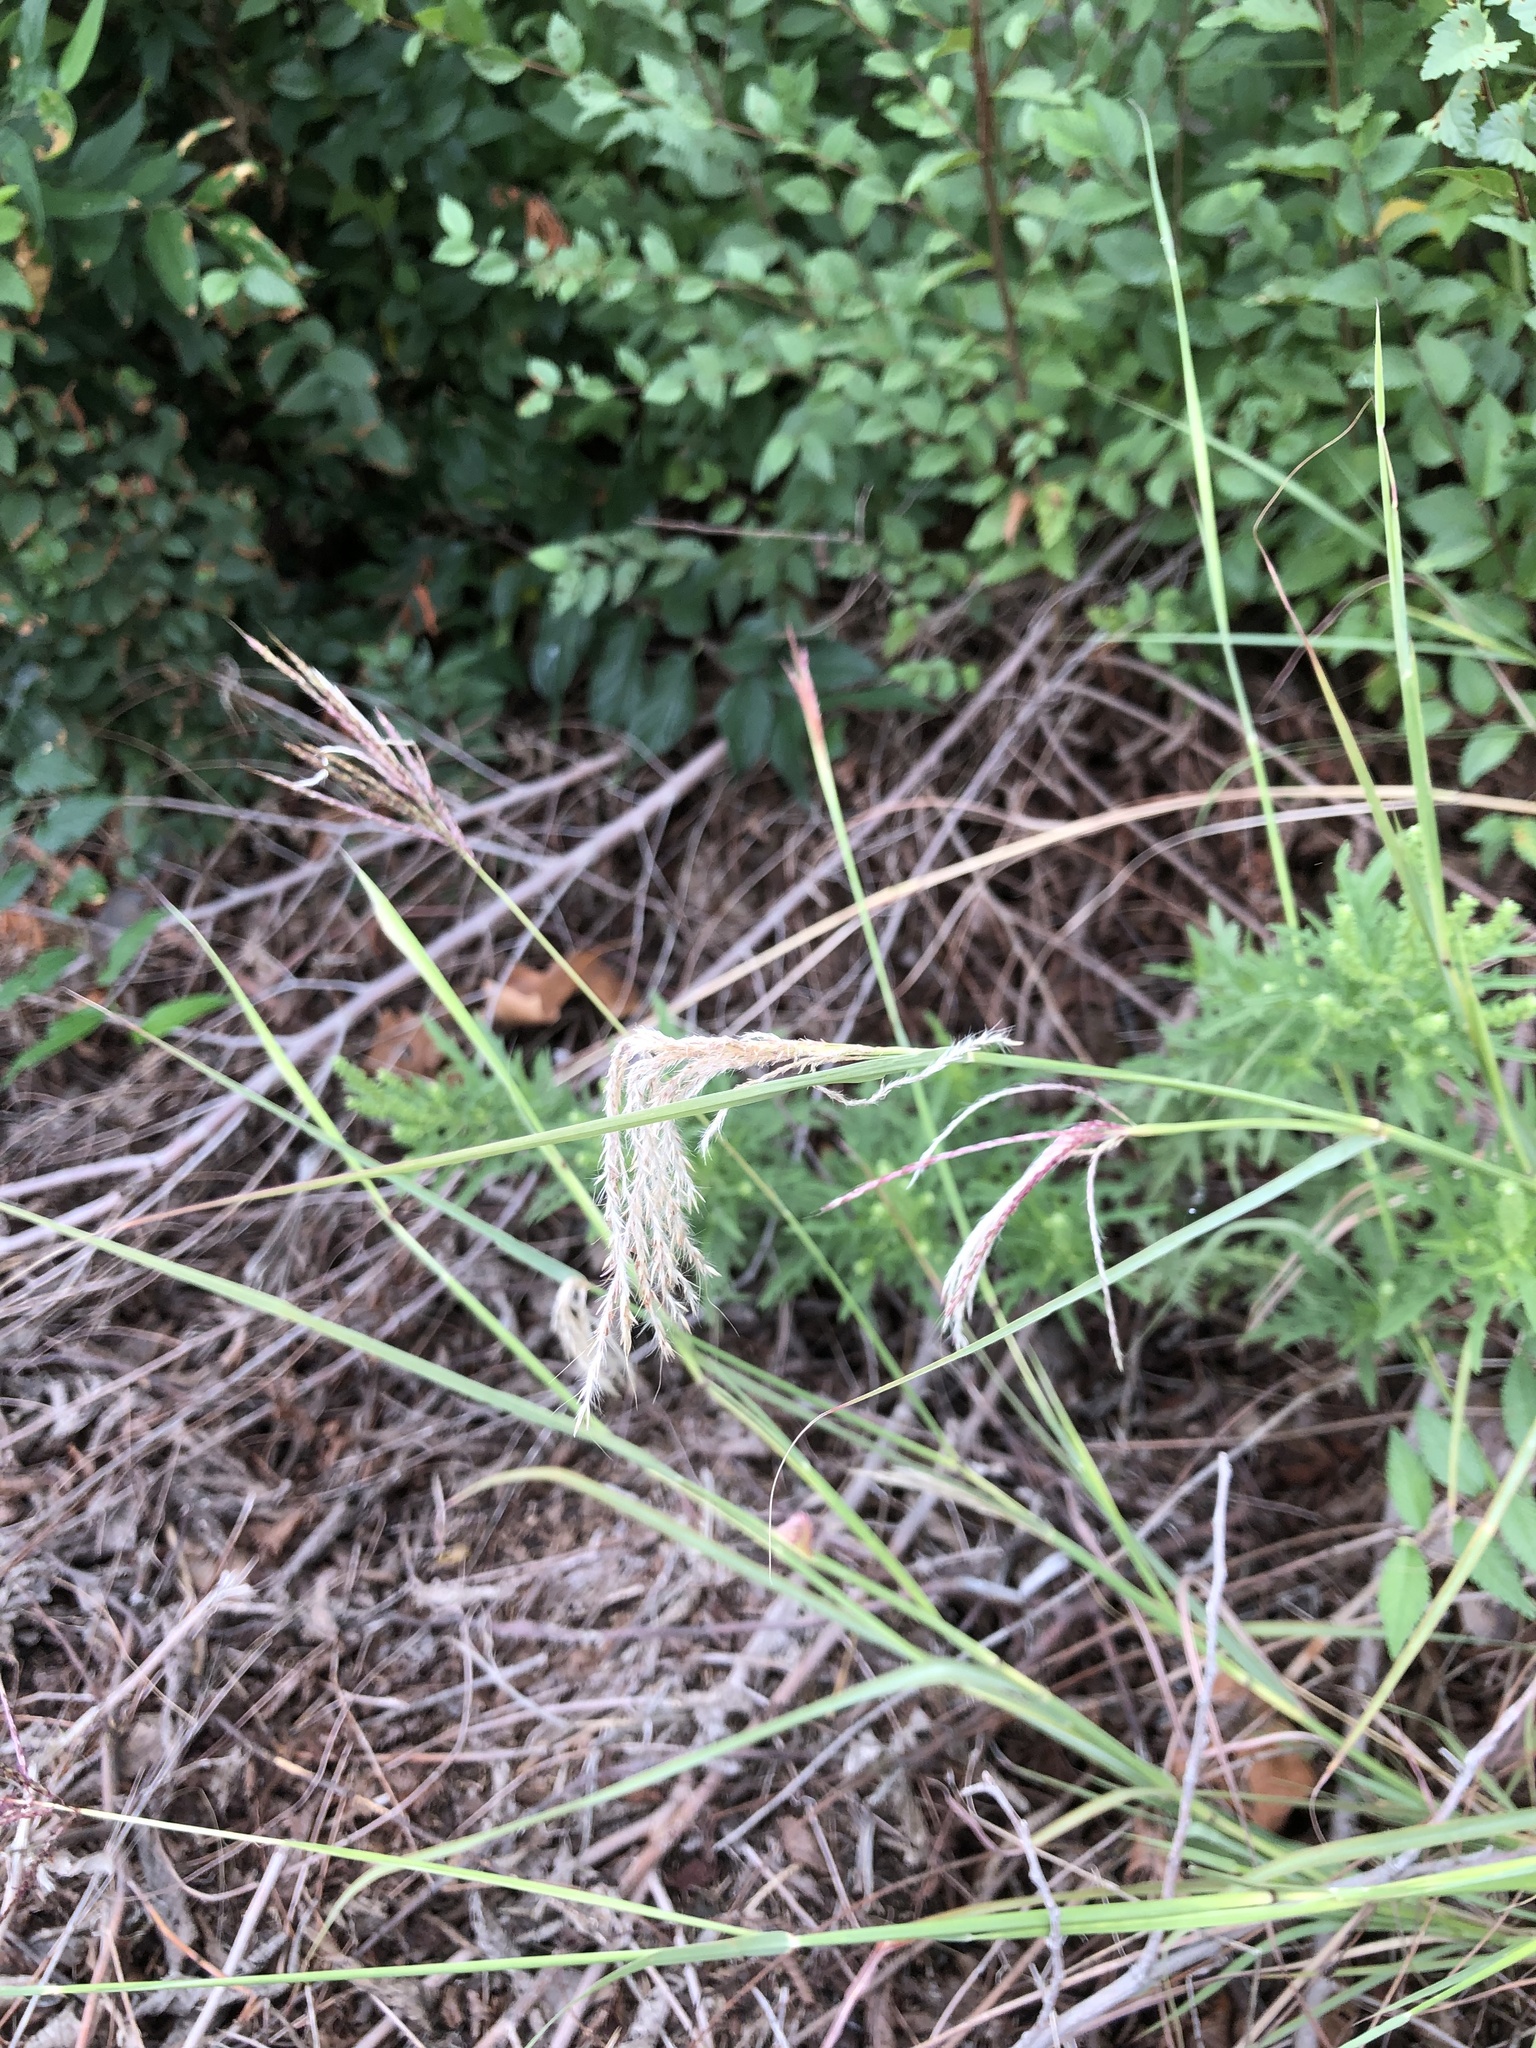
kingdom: Plantae
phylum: Tracheophyta
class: Liliopsida
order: Poales
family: Poaceae
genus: Bothriochloa
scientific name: Bothriochloa ischaemum
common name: Yellow bluestem
